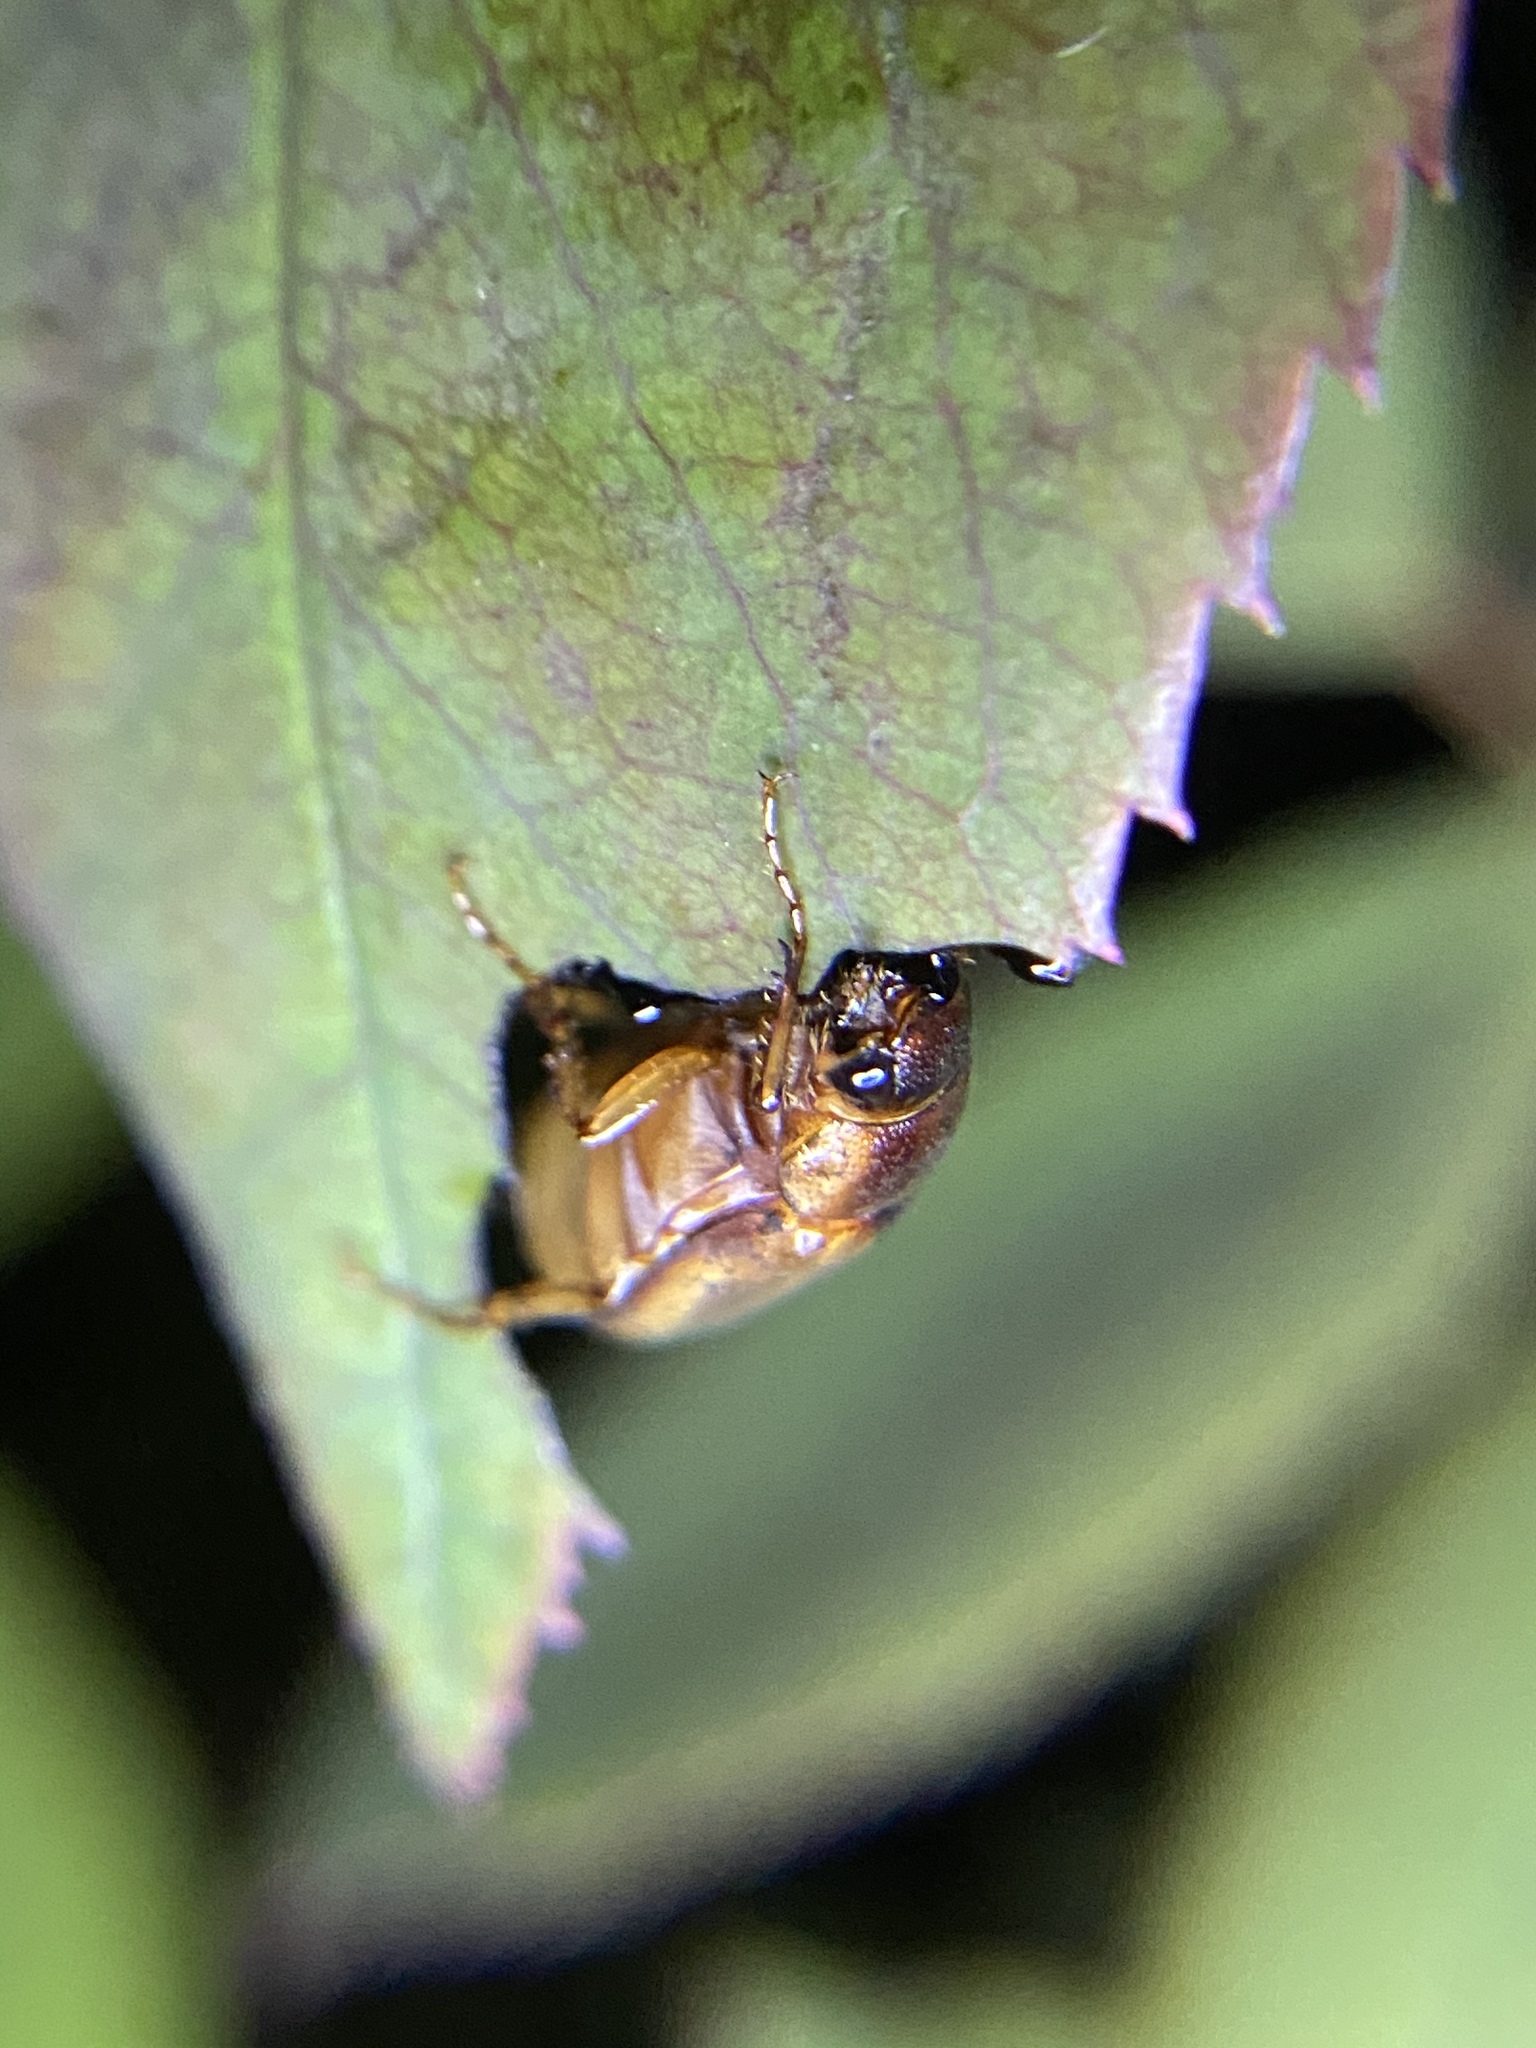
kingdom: Animalia
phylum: Arthropoda
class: Insecta
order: Coleoptera
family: Scarabaeidae
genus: Callistethus
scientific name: Callistethus marginatus
